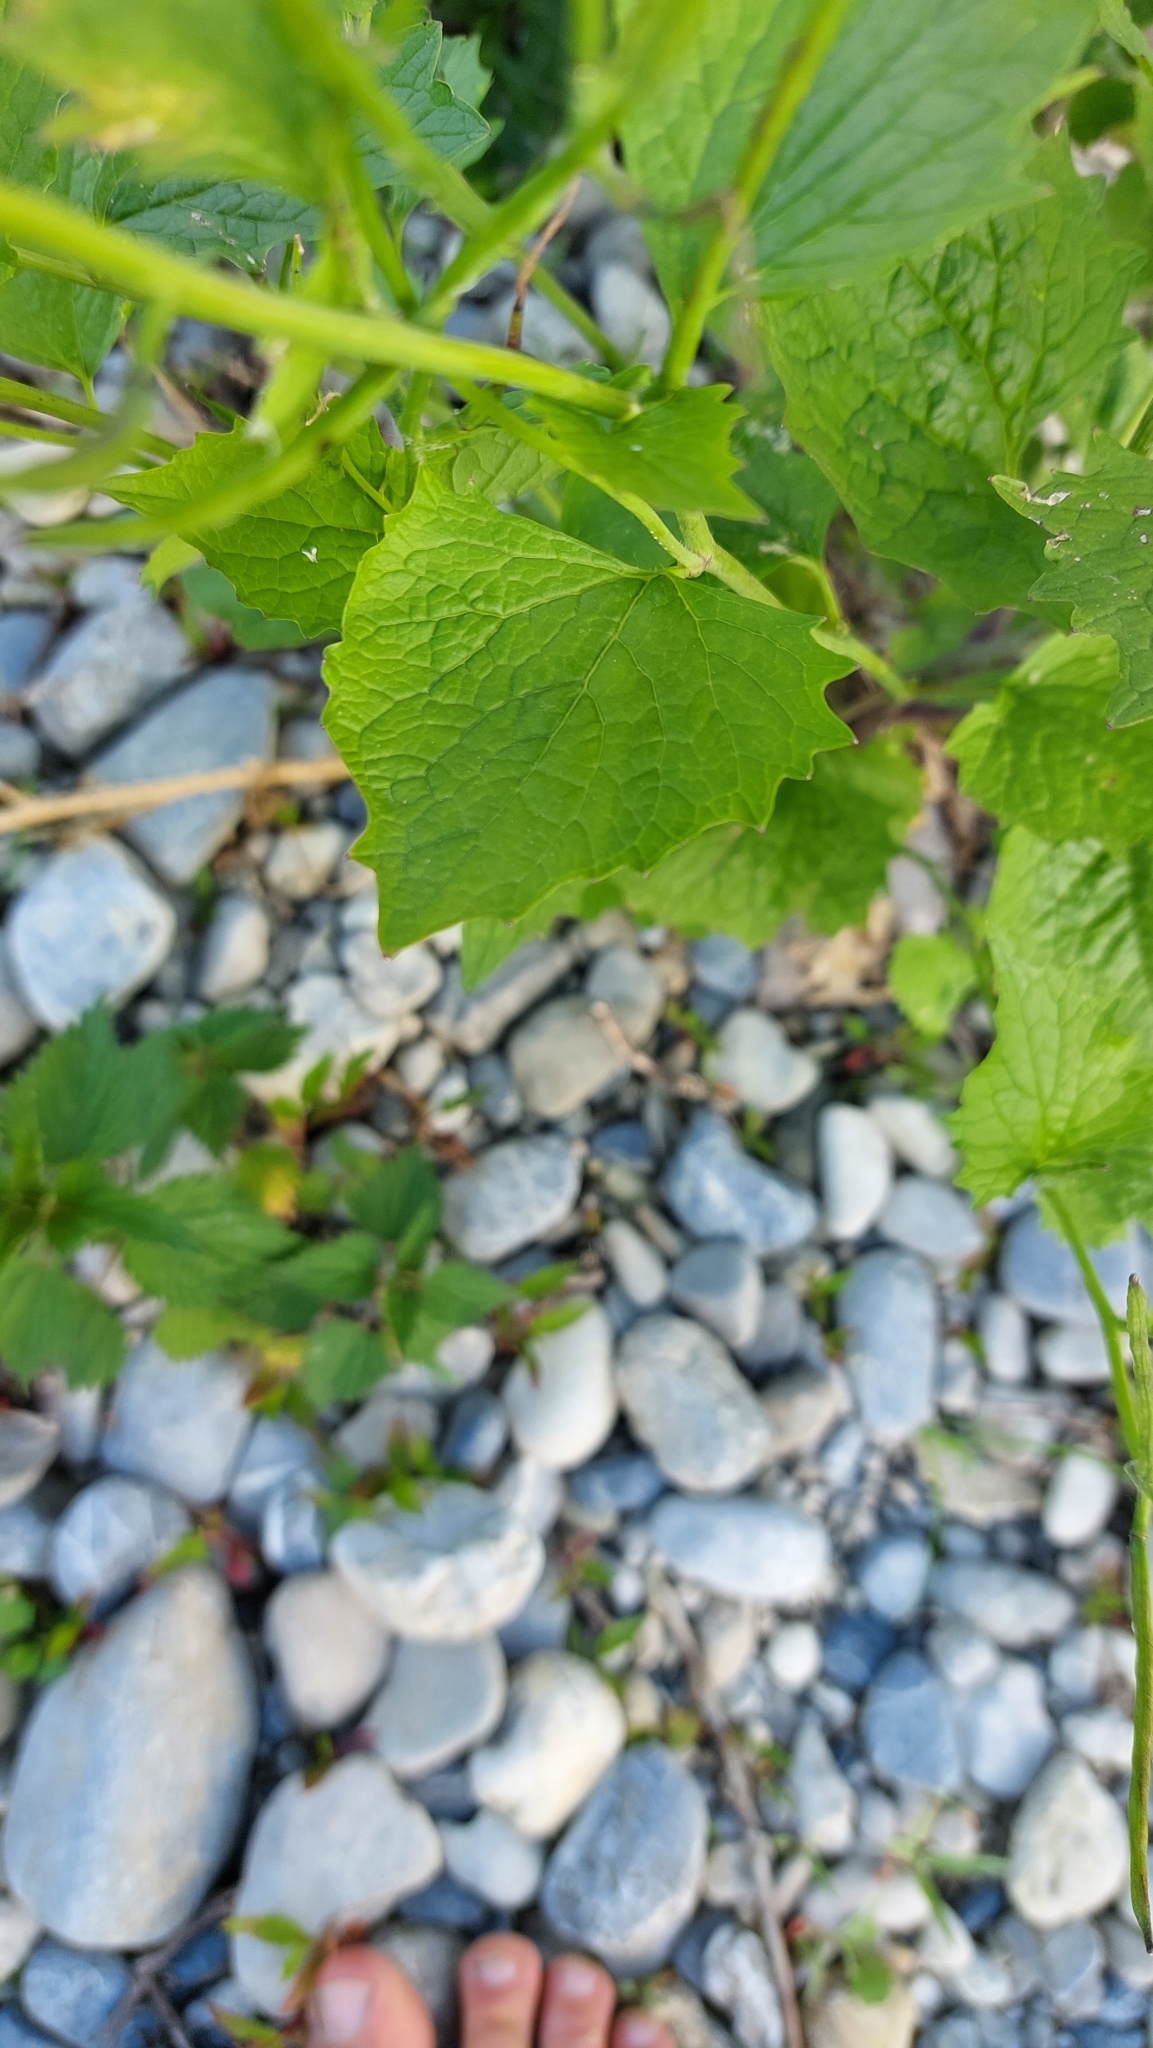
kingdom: Plantae
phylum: Tracheophyta
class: Magnoliopsida
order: Brassicales
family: Brassicaceae
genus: Alliaria
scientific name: Alliaria petiolata
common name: Garlic mustard
